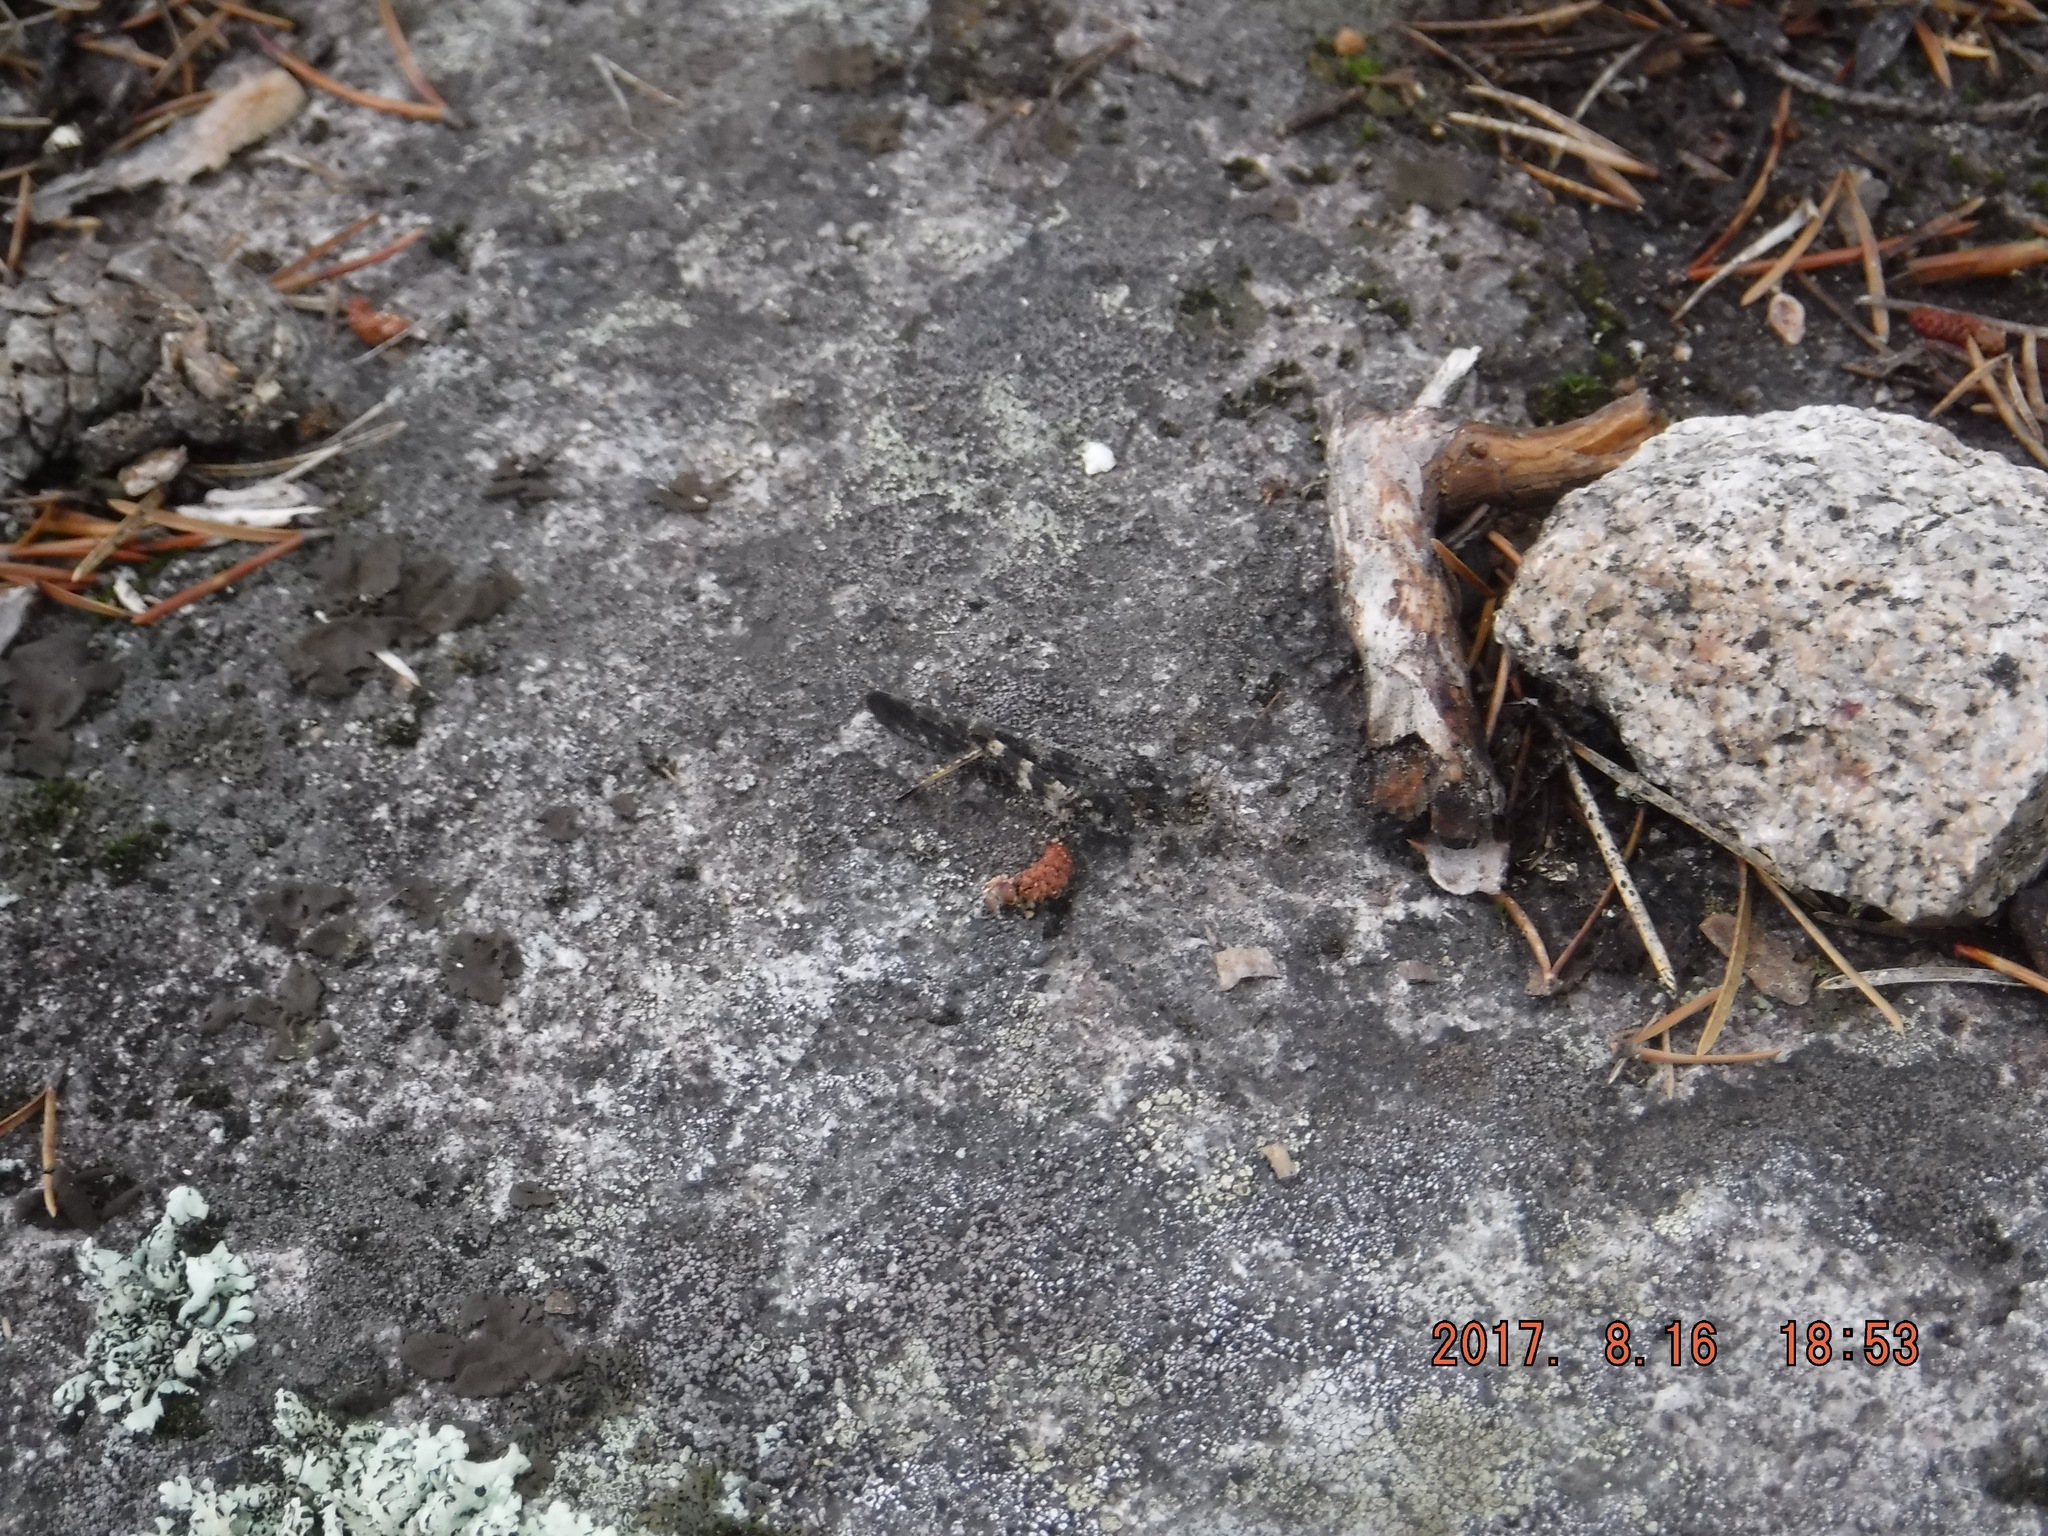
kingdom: Animalia
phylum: Arthropoda
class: Insecta
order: Orthoptera
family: Acrididae
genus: Trimerotropis
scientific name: Trimerotropis verruculata
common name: Crackling forest grasshopper
